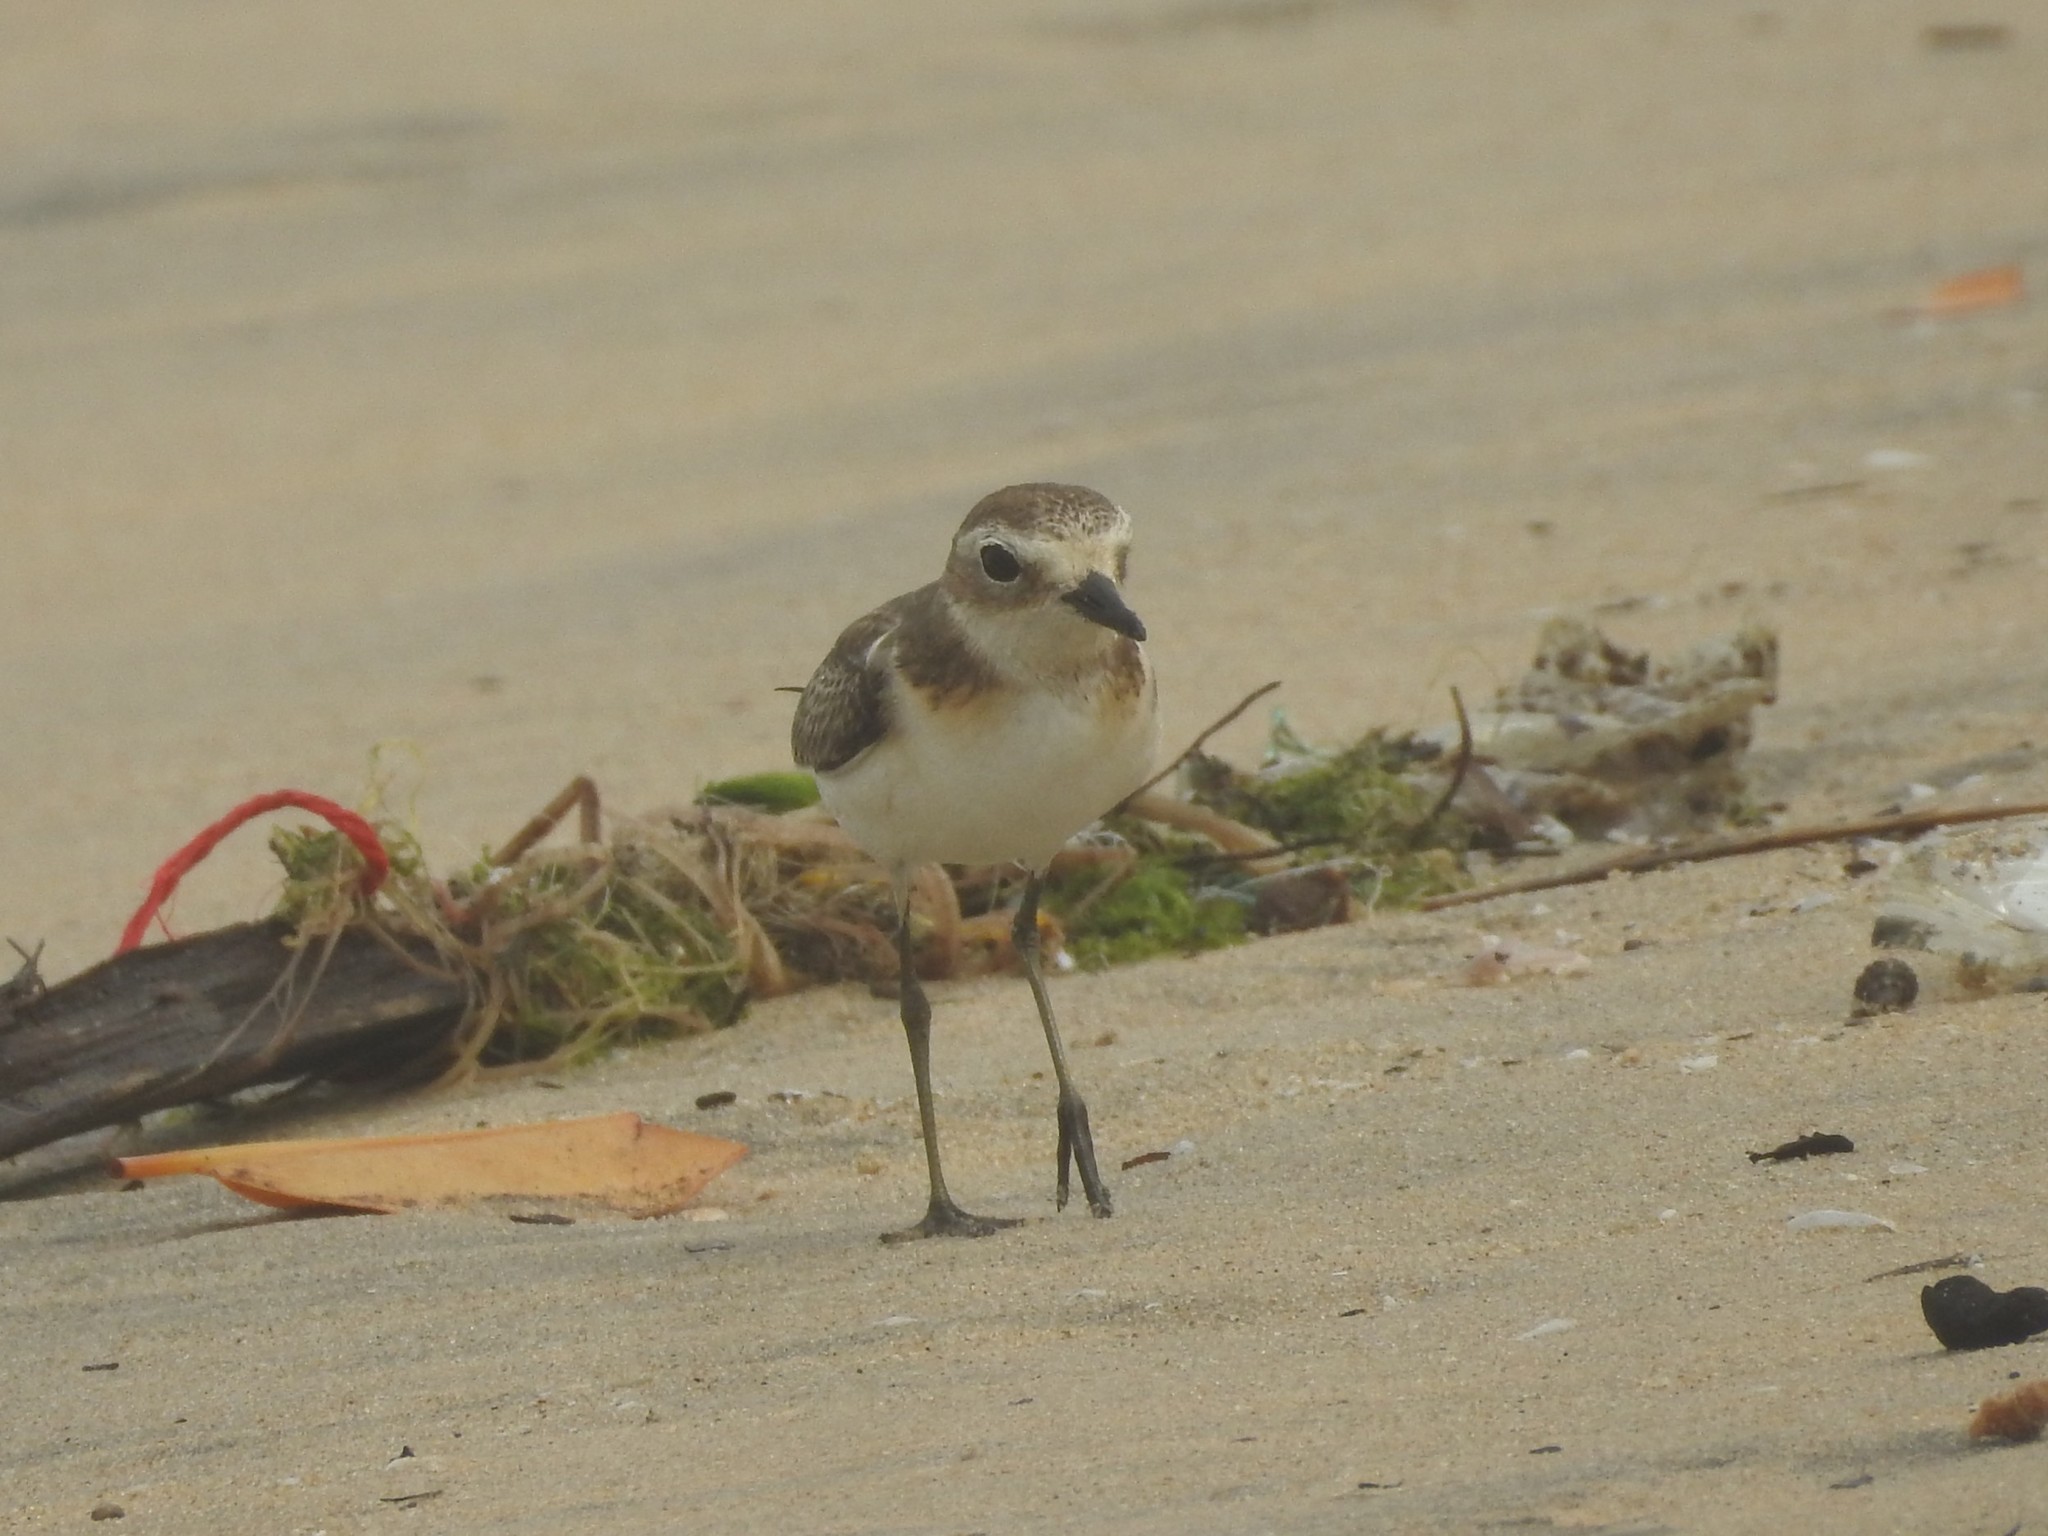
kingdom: Animalia
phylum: Chordata
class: Aves
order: Charadriiformes
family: Charadriidae
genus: Anarhynchus
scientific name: Anarhynchus
